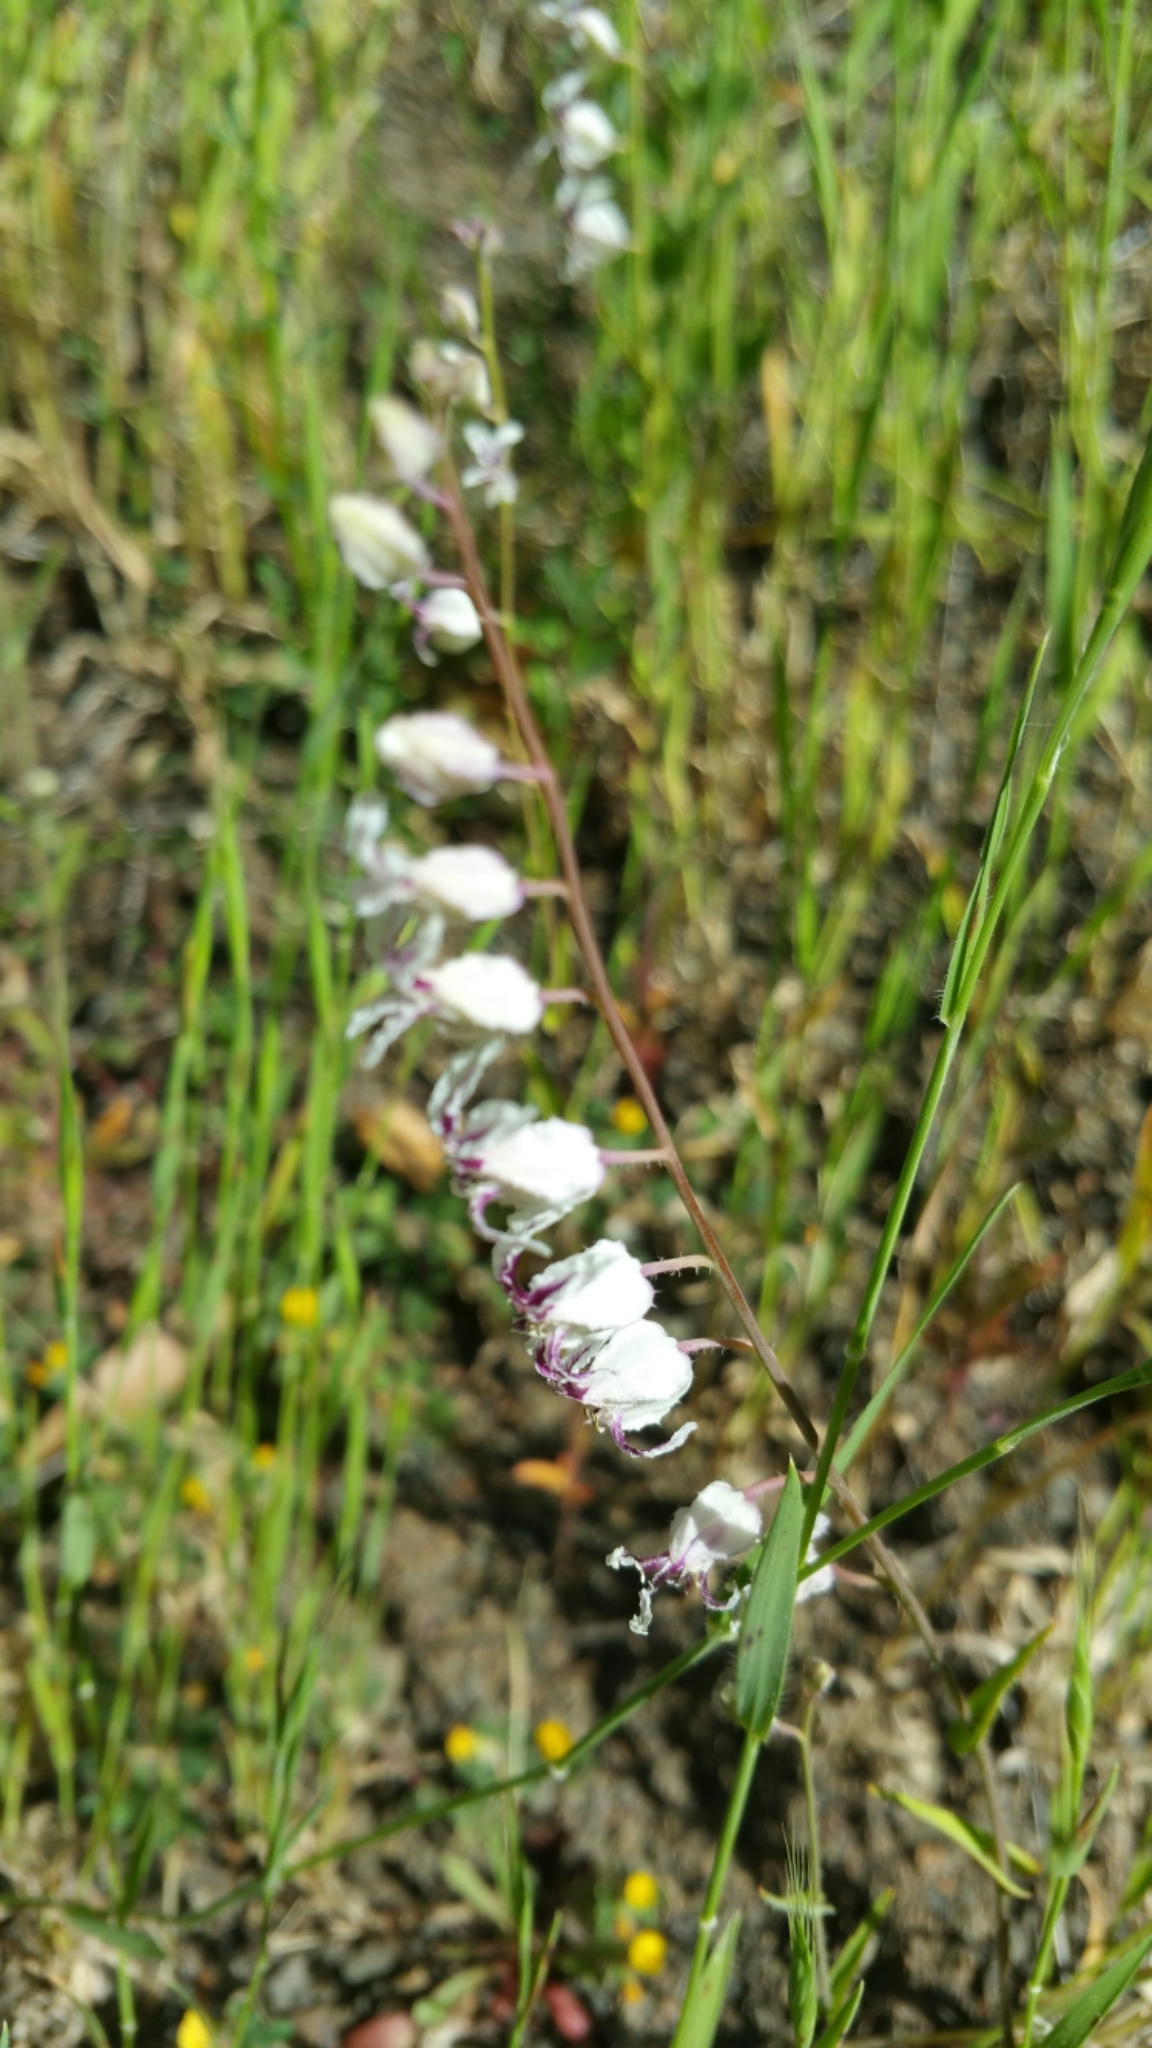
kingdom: Plantae
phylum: Tracheophyta
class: Magnoliopsida
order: Brassicales
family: Brassicaceae
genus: Streptanthus
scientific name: Streptanthus glandulosus
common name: Jewel-flower
